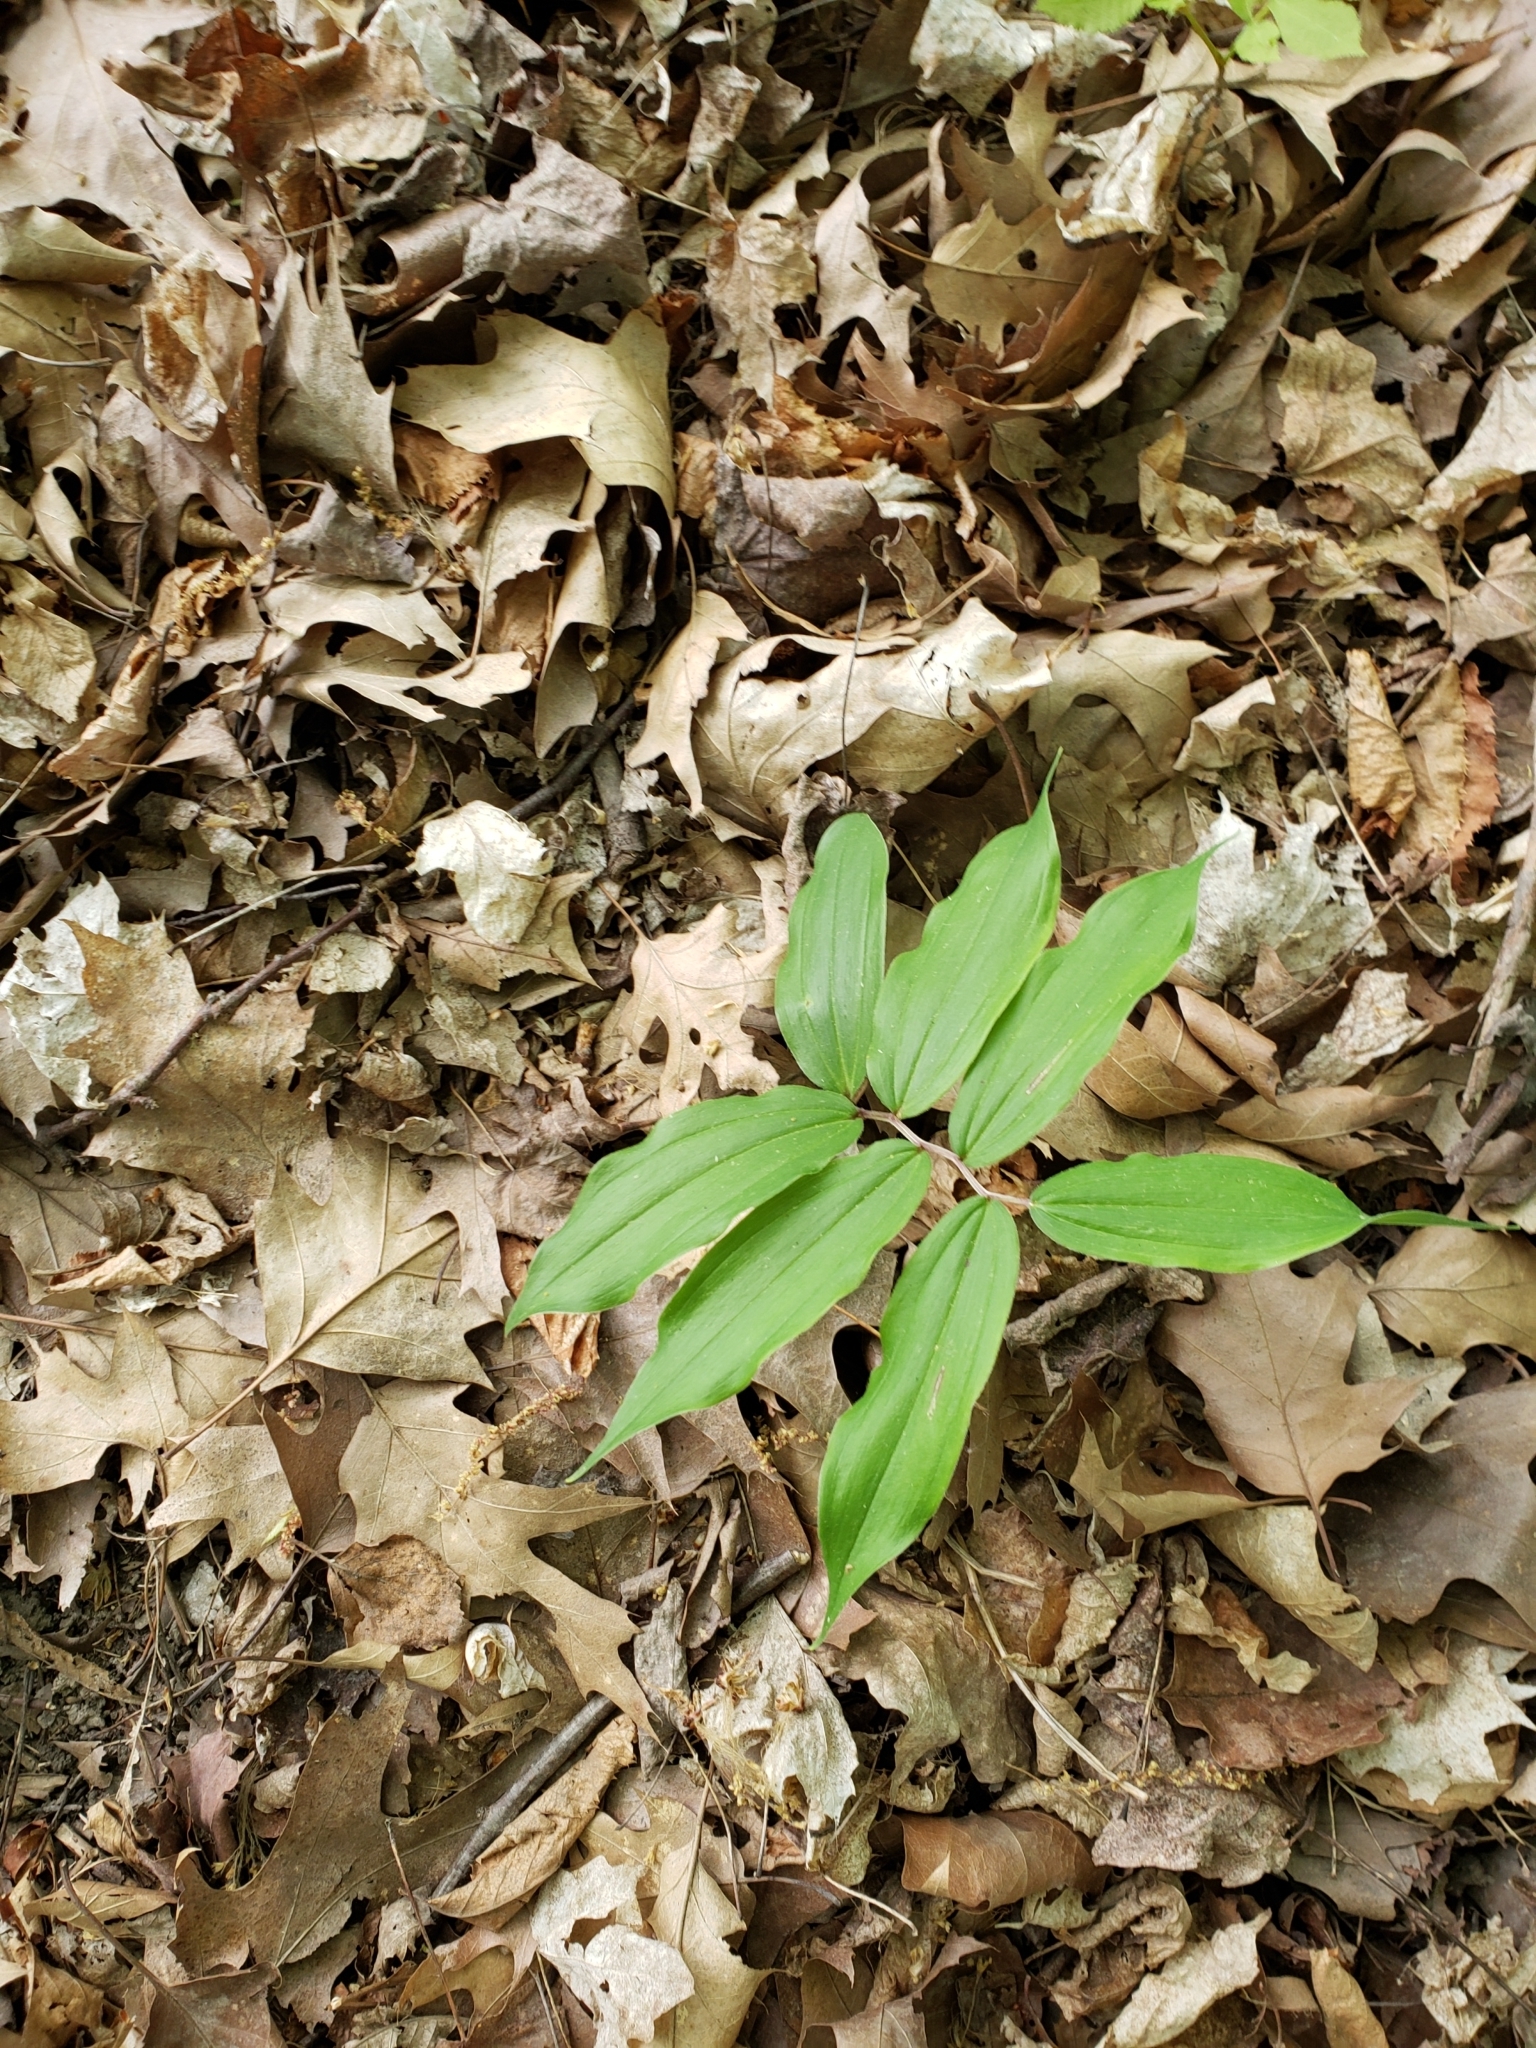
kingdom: Plantae
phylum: Tracheophyta
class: Liliopsida
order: Asparagales
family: Asparagaceae
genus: Maianthemum
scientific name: Maianthemum racemosum
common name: False spikenard
